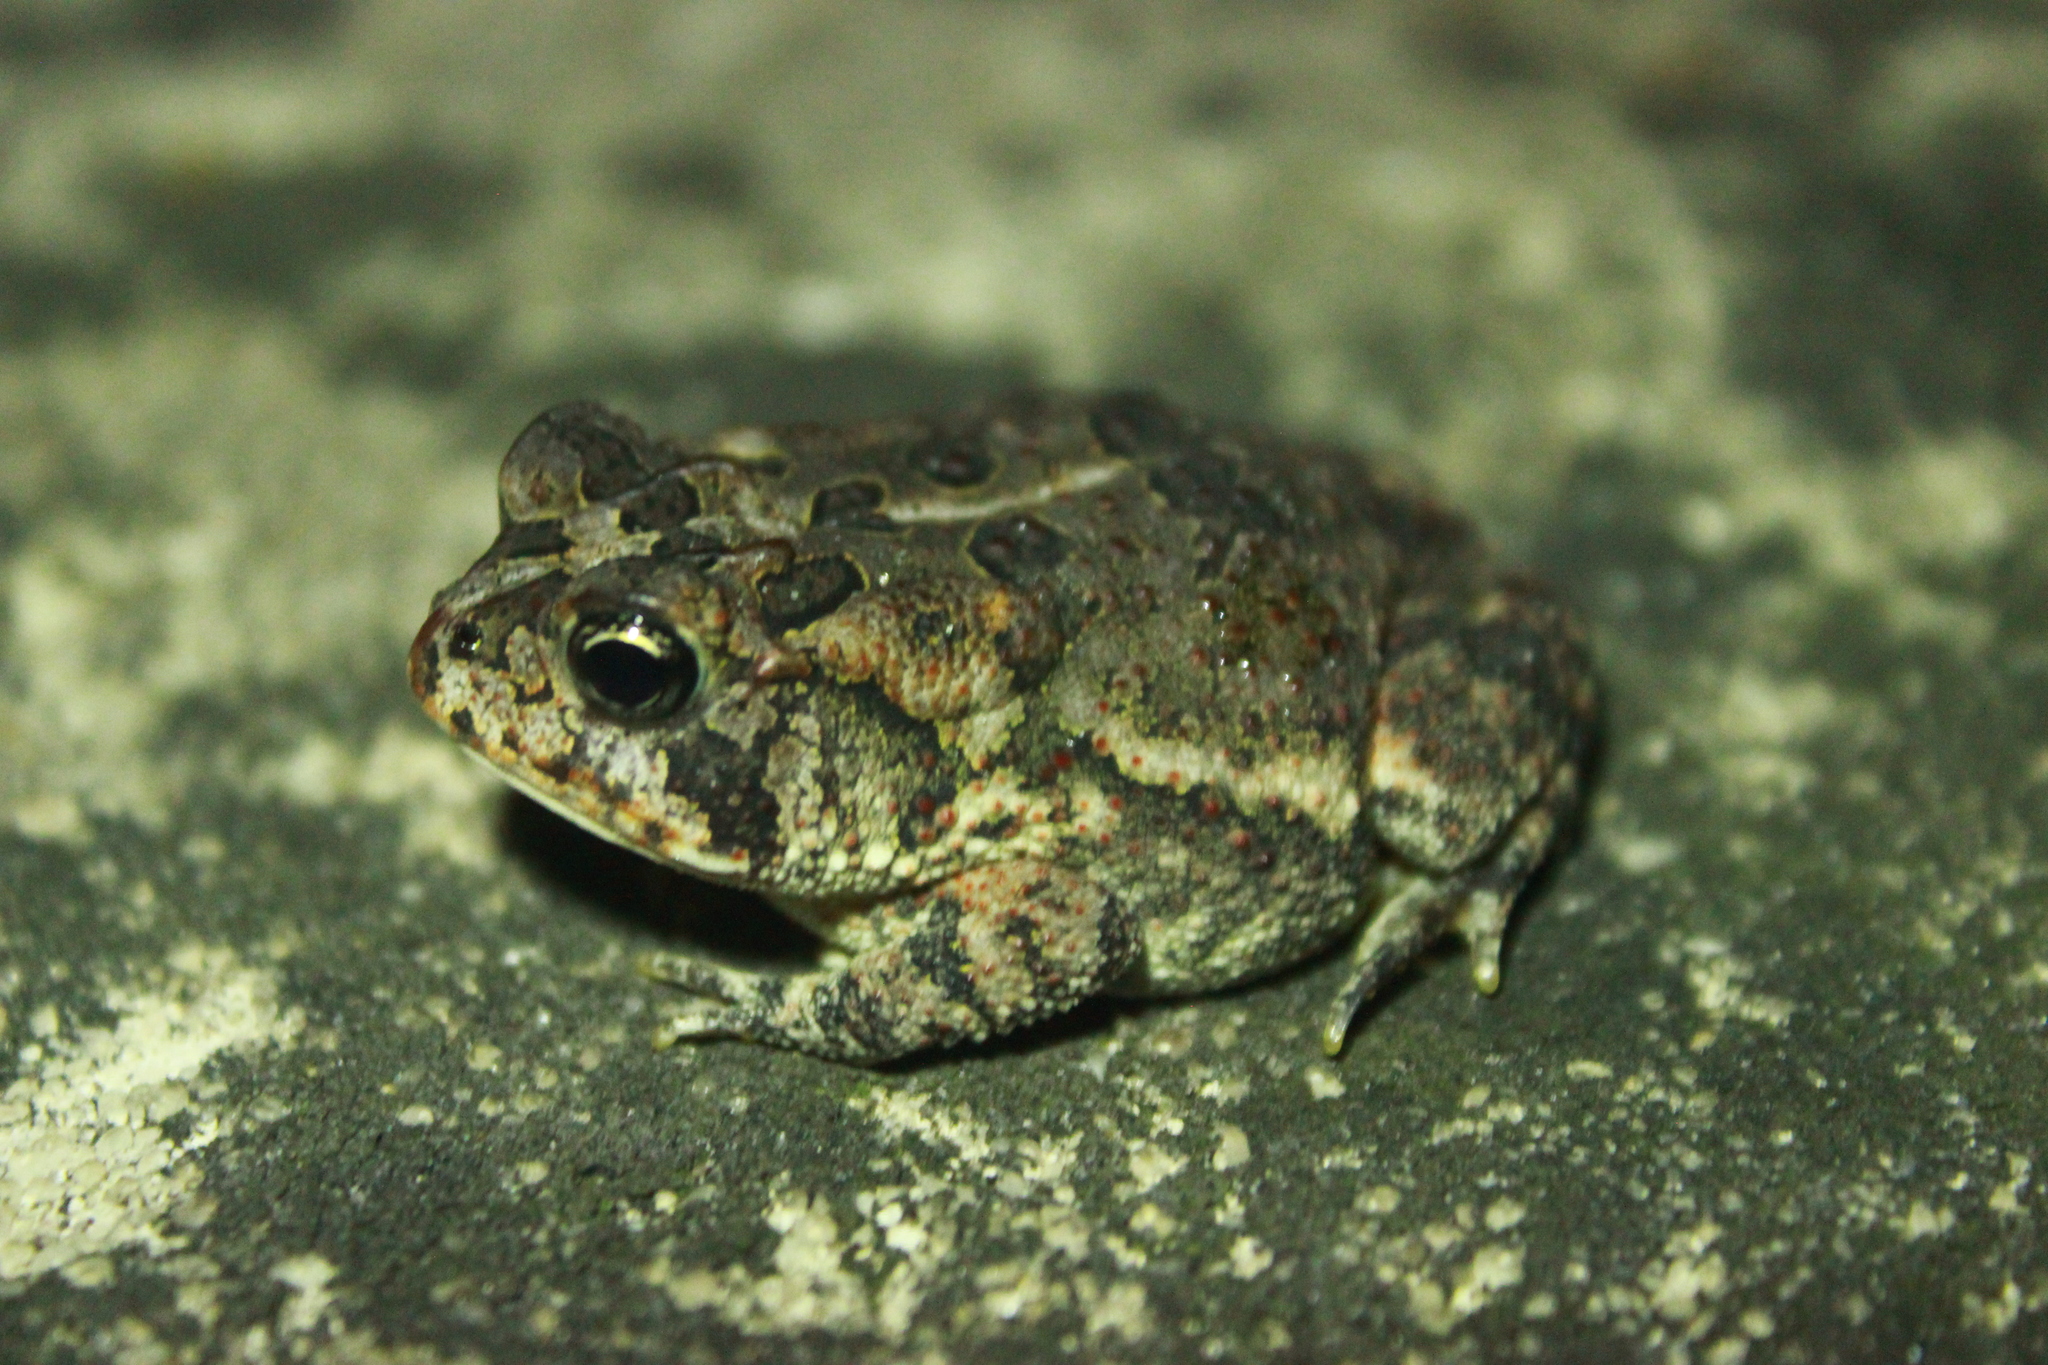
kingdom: Animalia
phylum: Chordata
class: Amphibia
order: Anura
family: Bufonidae
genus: Anaxyrus
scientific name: Anaxyrus terrestris
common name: Southern toad
